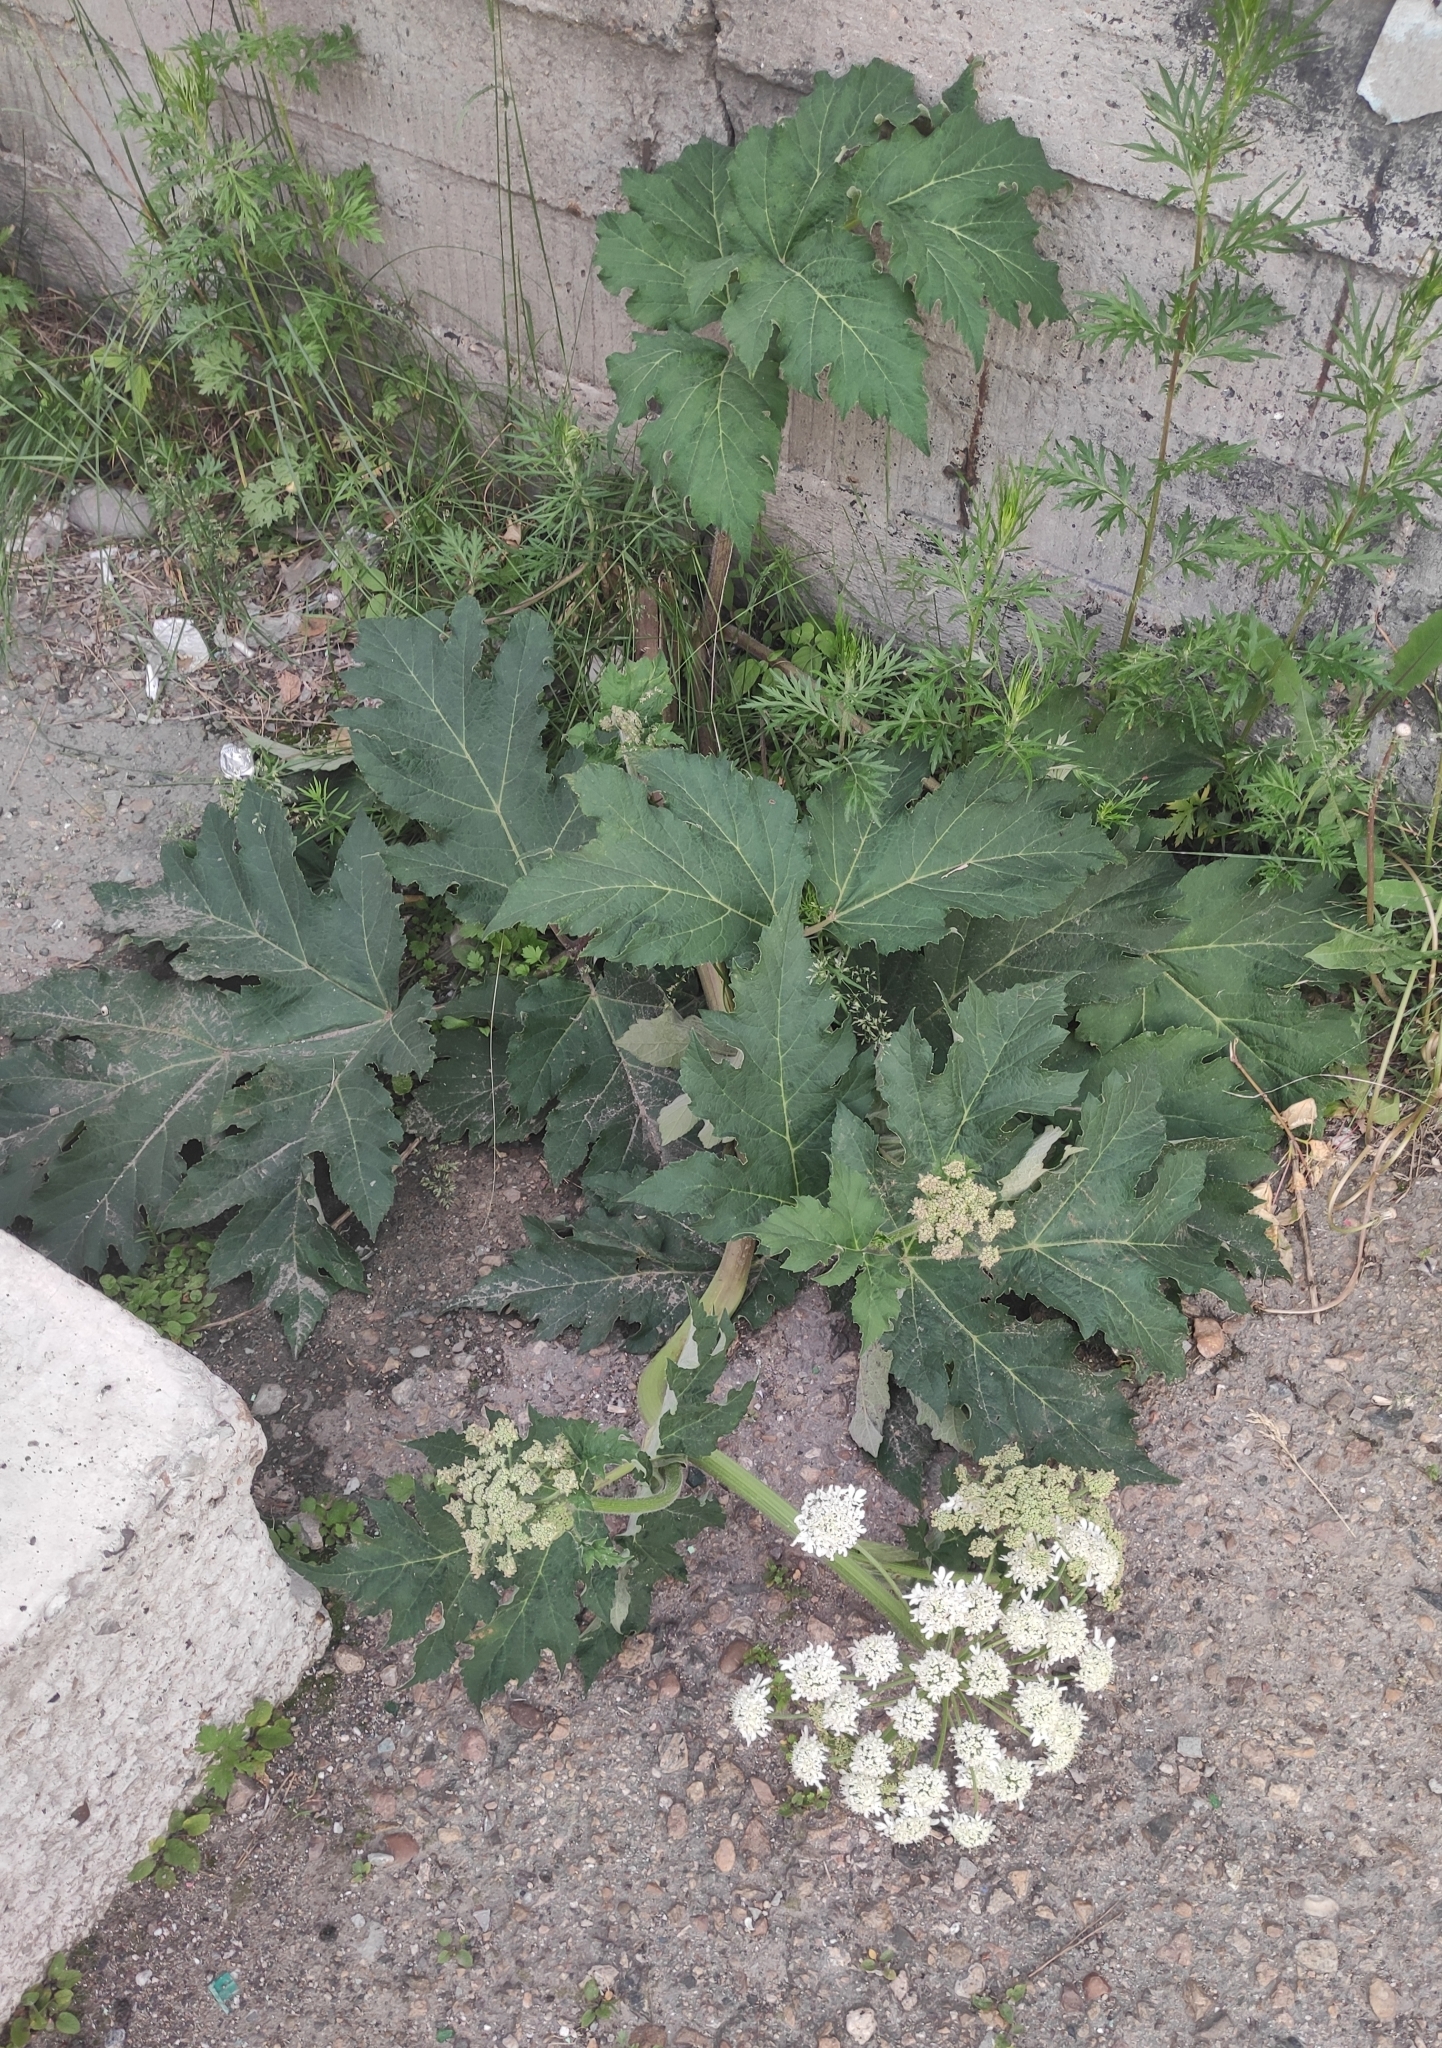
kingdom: Plantae
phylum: Tracheophyta
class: Magnoliopsida
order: Apiales
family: Apiaceae
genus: Heracleum
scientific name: Heracleum dissectum
